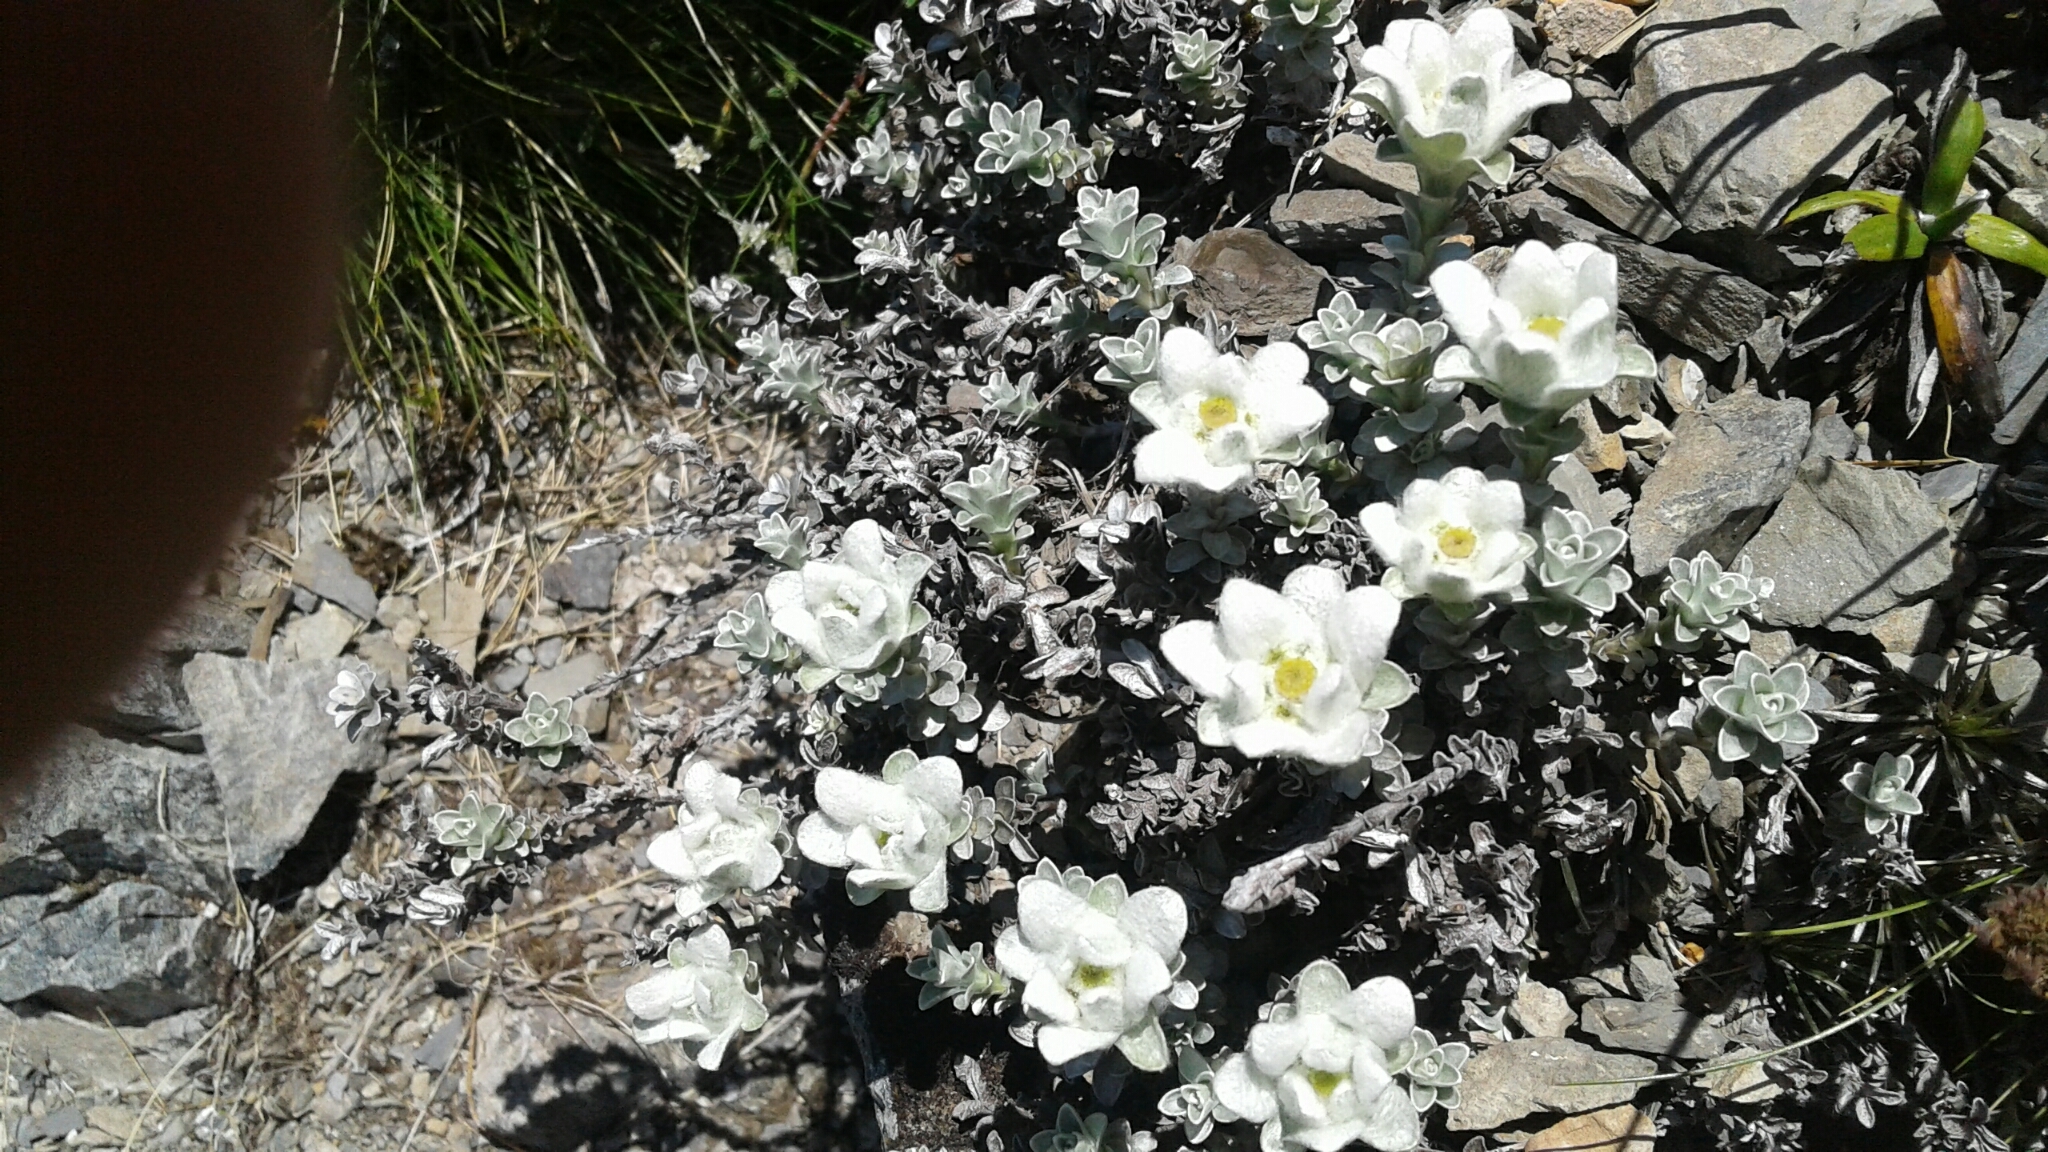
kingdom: Plantae
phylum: Tracheophyta
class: Magnoliopsida
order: Asterales
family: Asteraceae
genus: Leucogenes
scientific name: Leucogenes grandiceps
